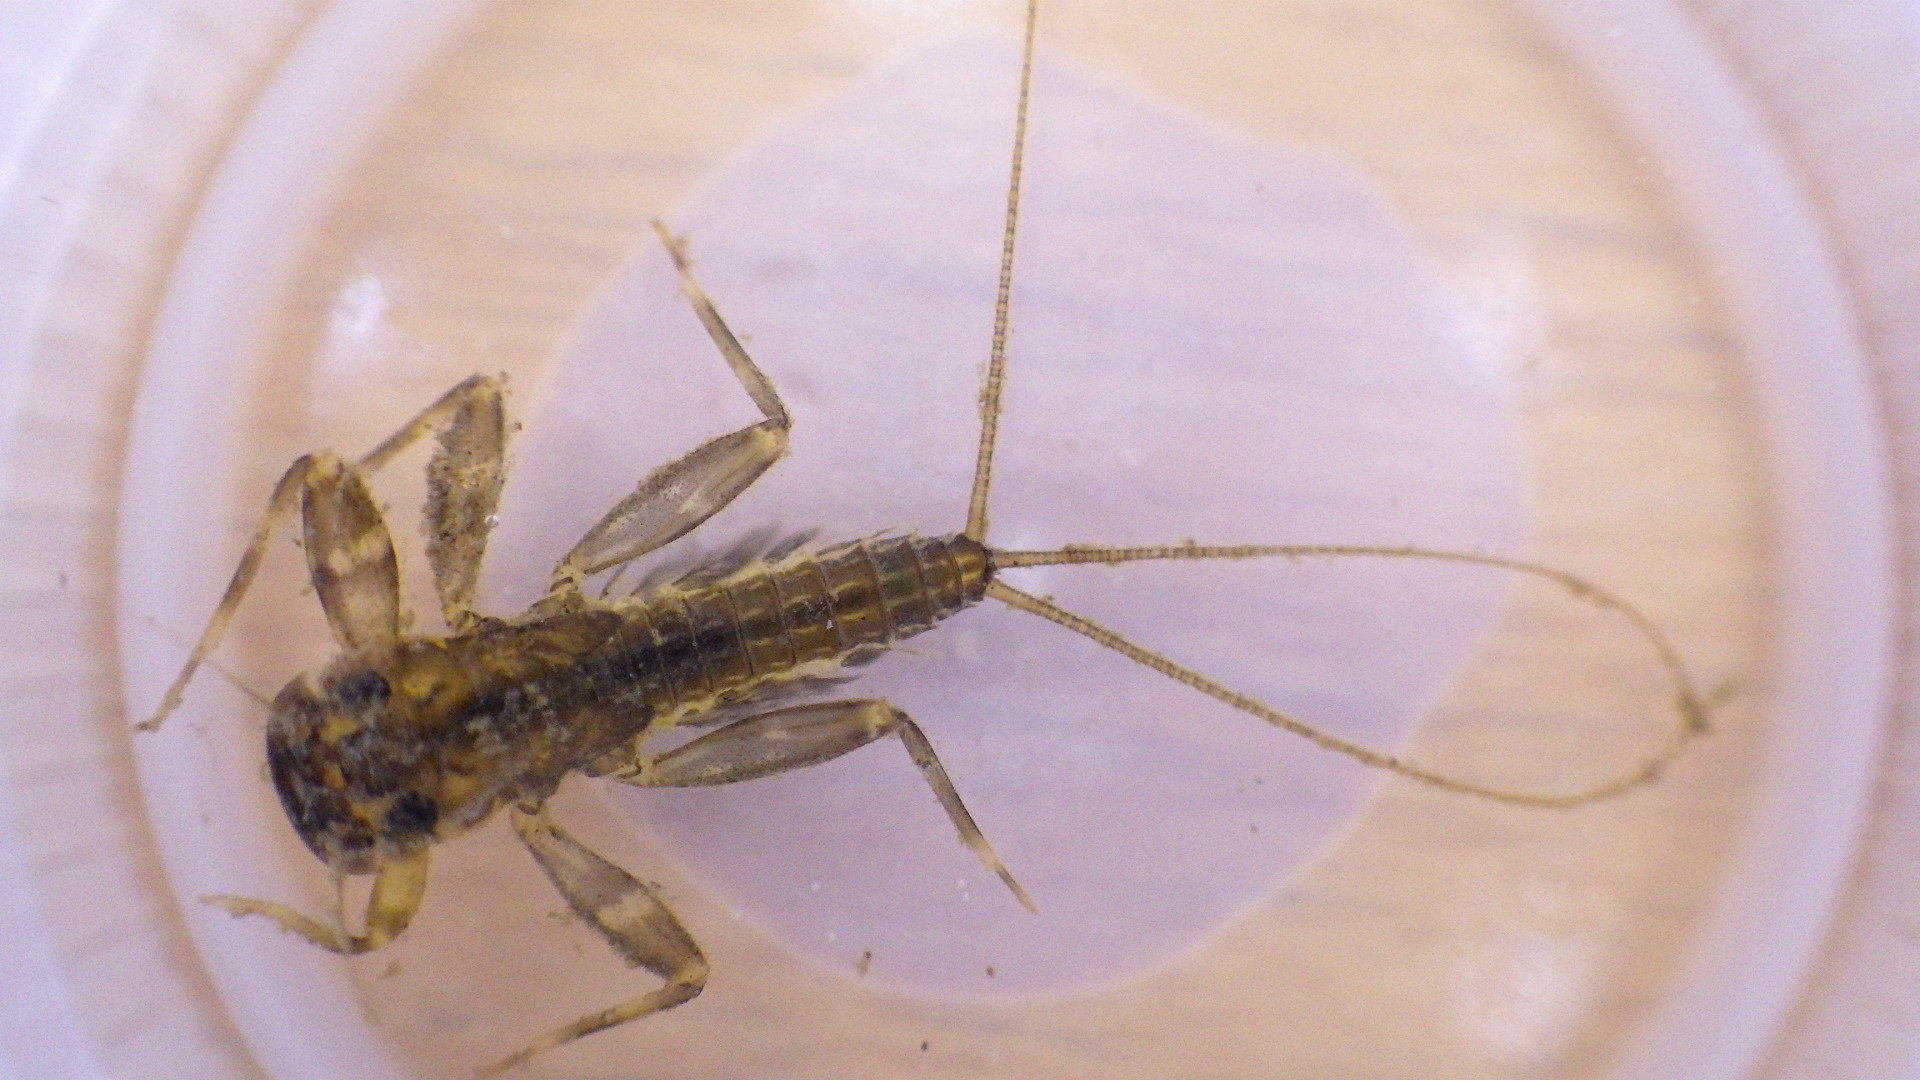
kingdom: Animalia
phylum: Arthropoda
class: Insecta
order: Ephemeroptera
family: Heptageniidae
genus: Stenacron
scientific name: Stenacron interpunctatum
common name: Orange cahill
